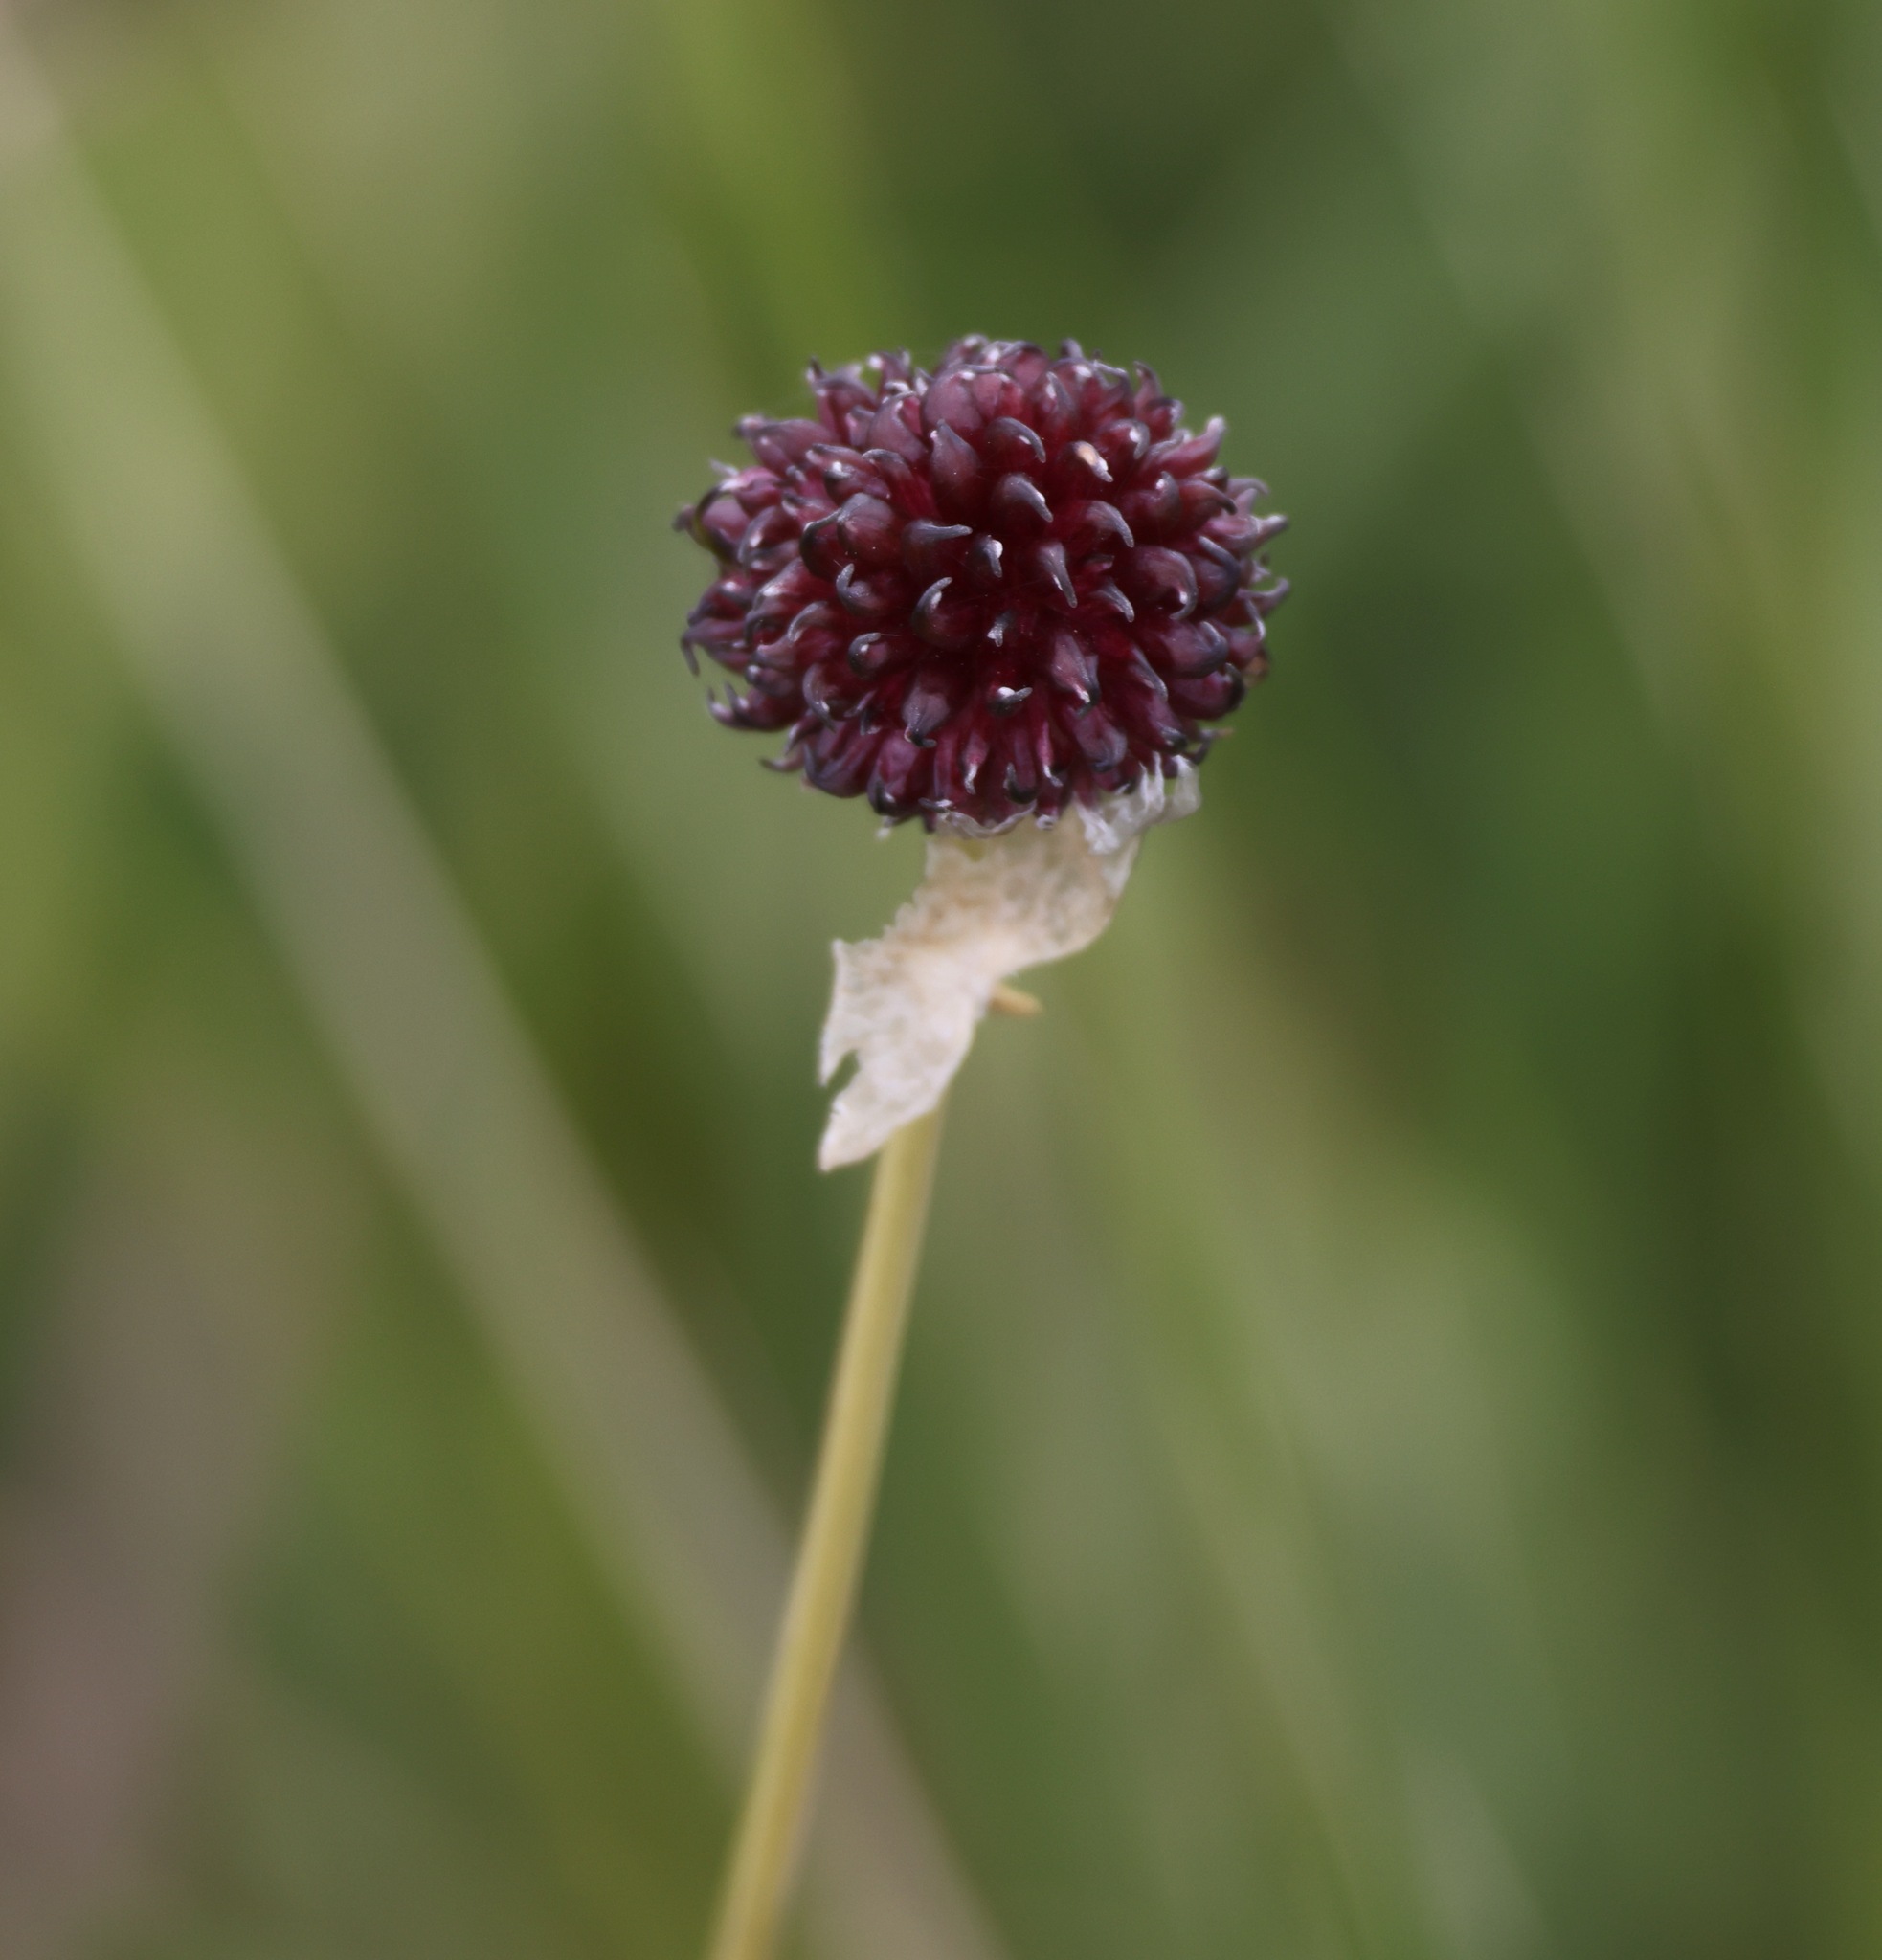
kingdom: Plantae
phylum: Tracheophyta
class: Liliopsida
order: Asparagales
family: Amaryllidaceae
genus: Allium
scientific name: Allium vineale
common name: Crow garlic
